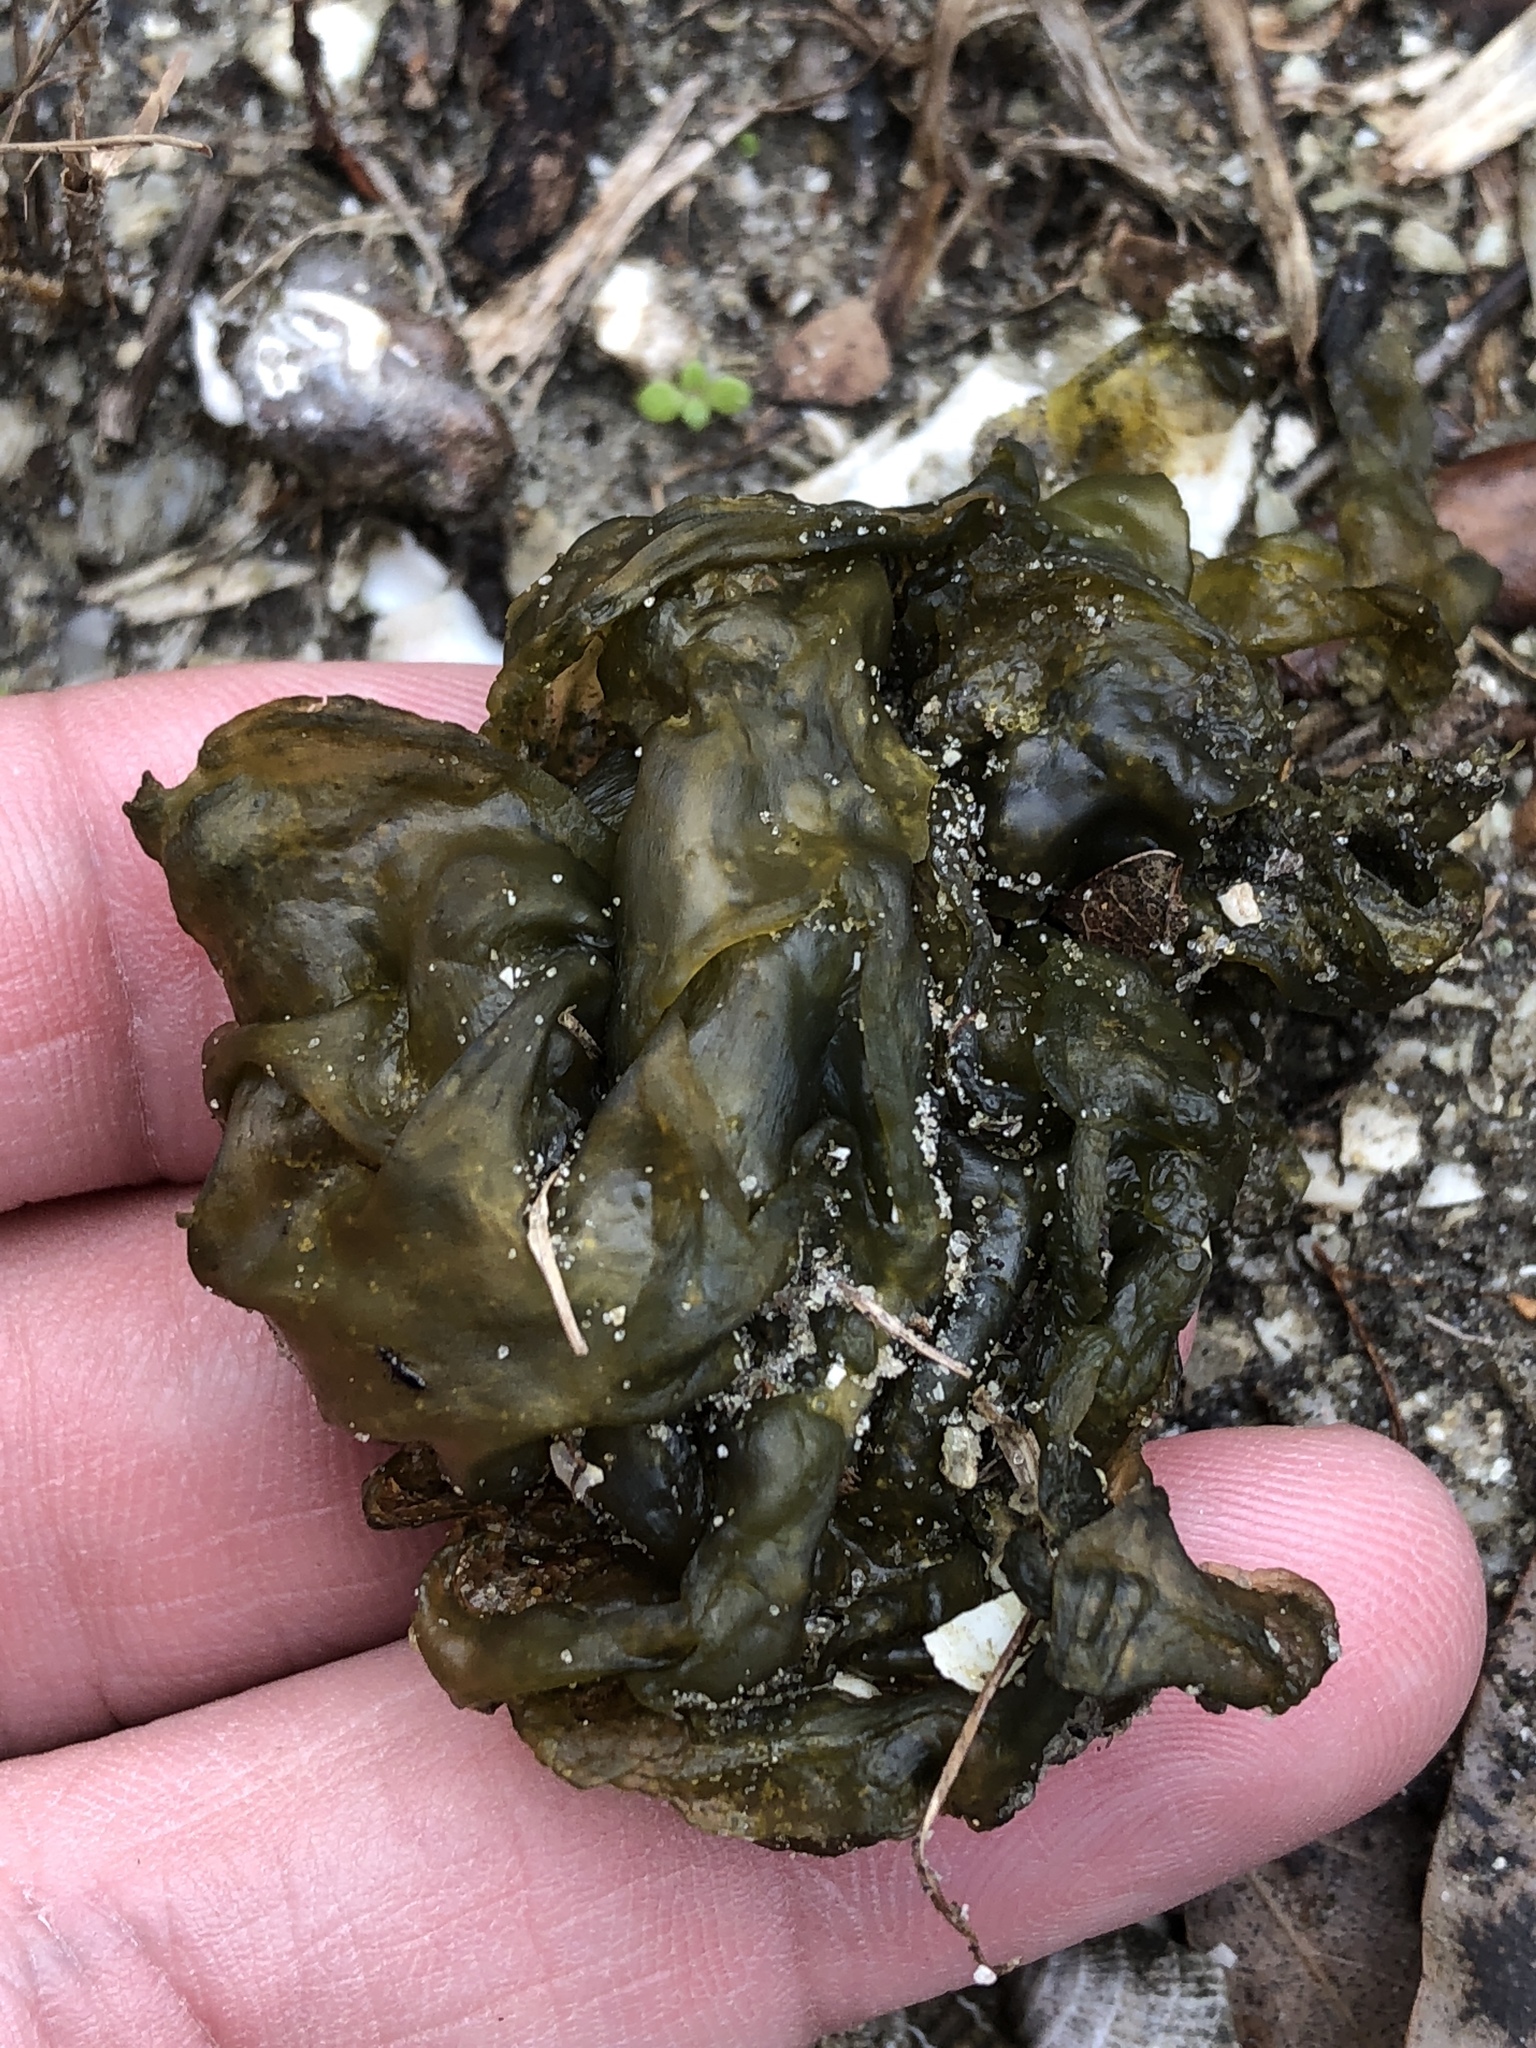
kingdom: Bacteria
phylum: Cyanobacteria
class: Cyanobacteriia
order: Cyanobacteriales
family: Nostocaceae
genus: Nostoc
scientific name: Nostoc commune
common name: Star jelly
